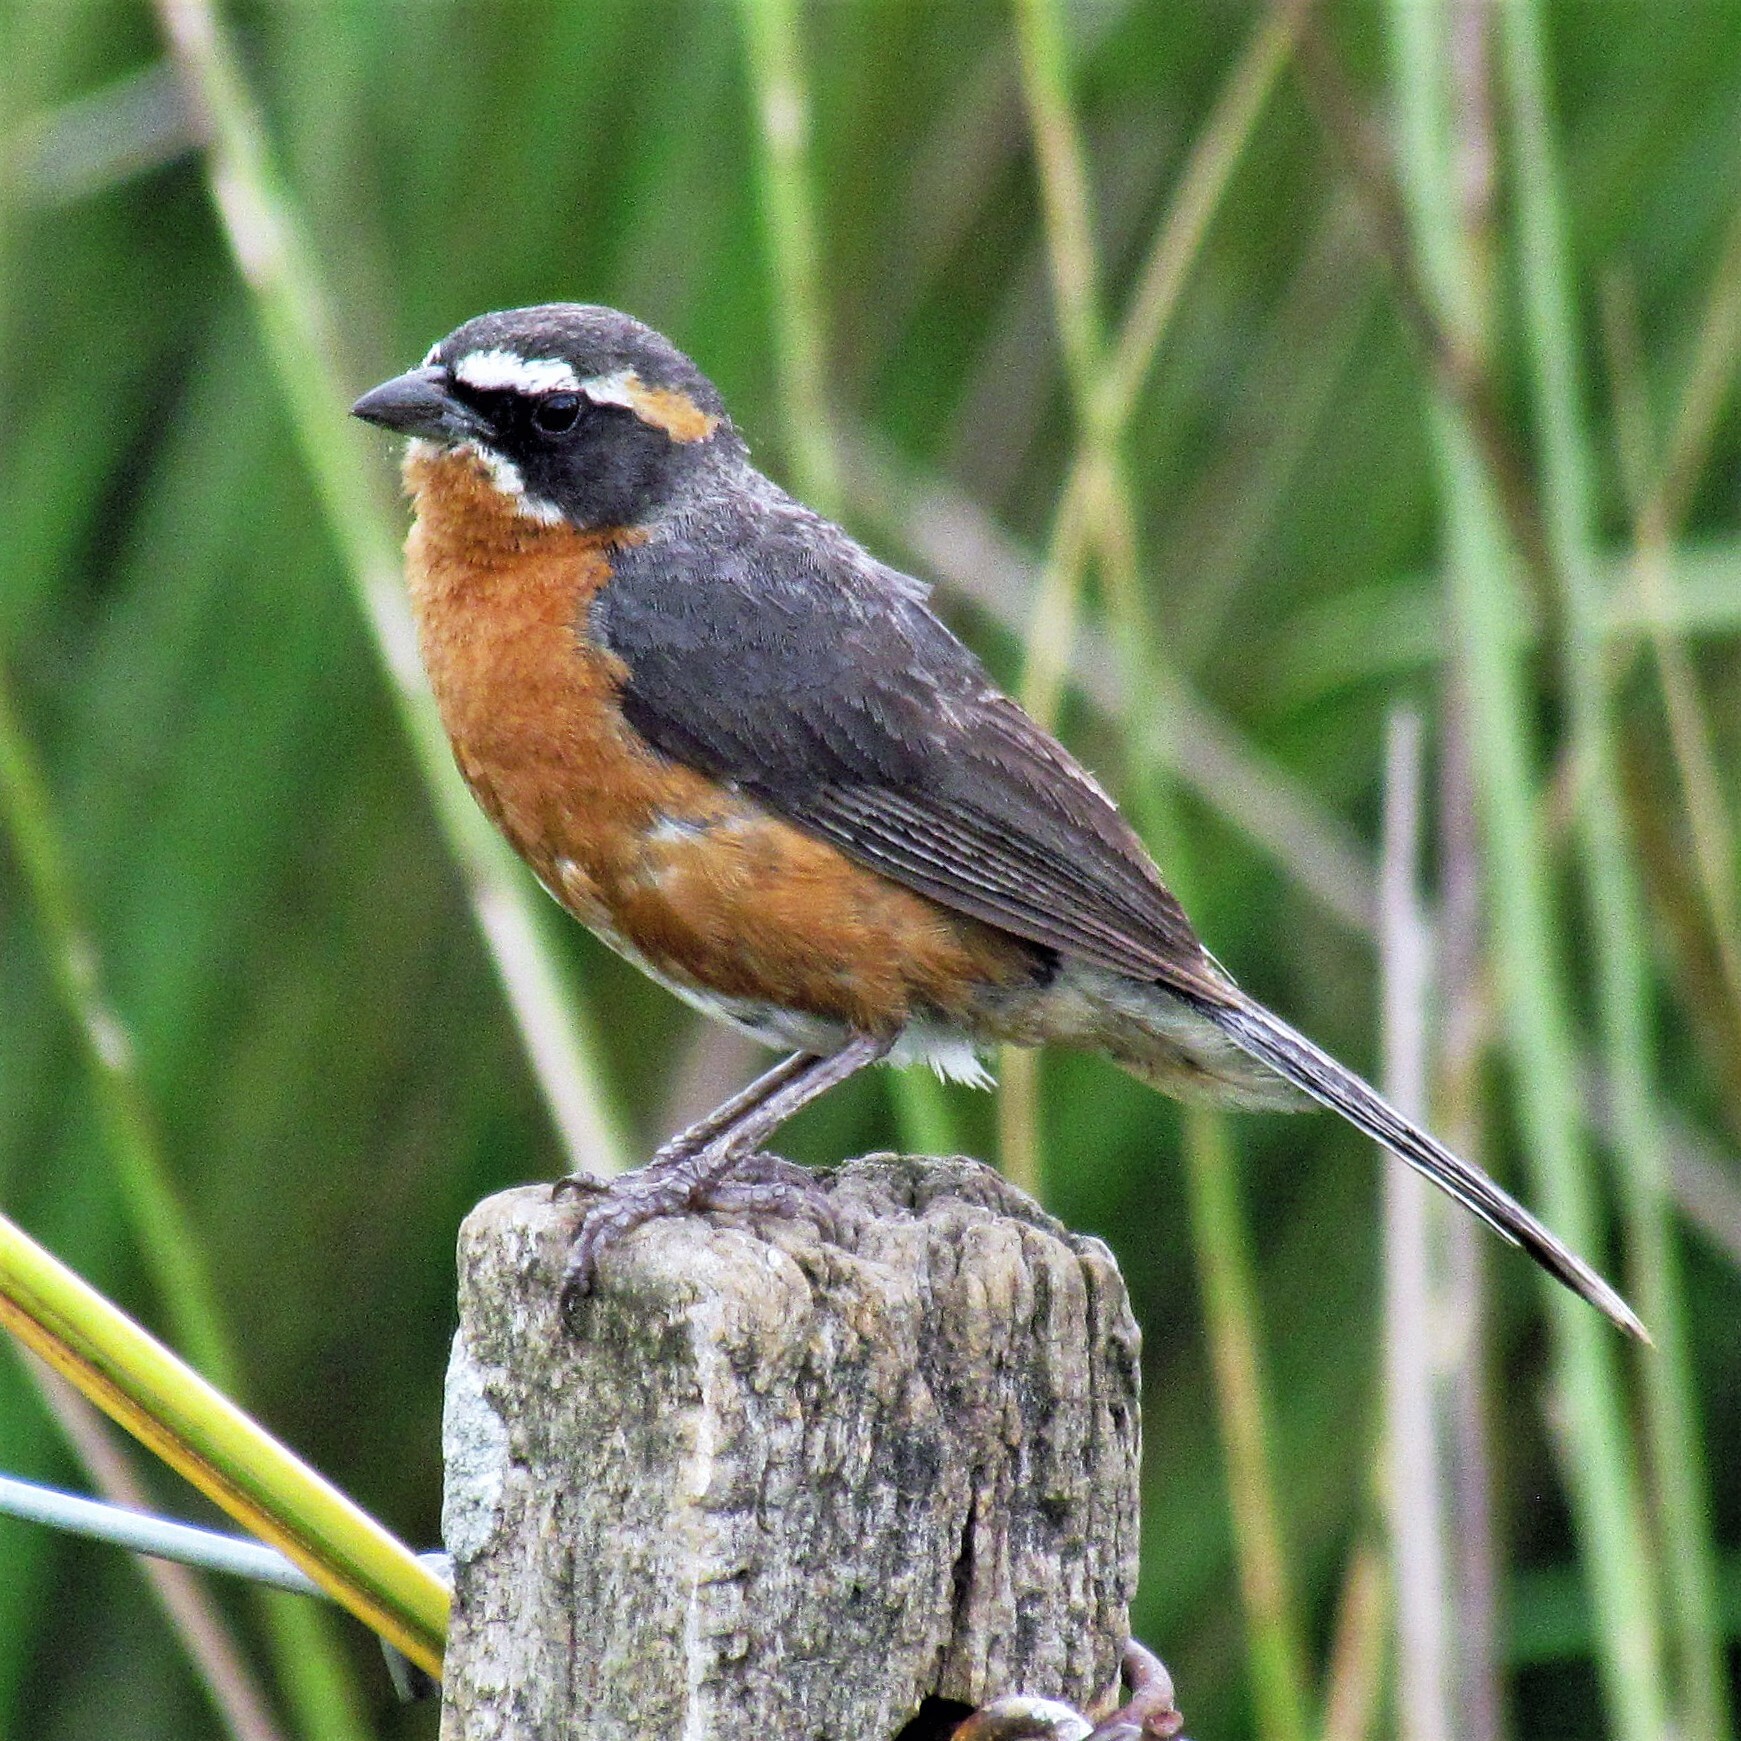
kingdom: Animalia
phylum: Chordata
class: Aves
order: Passeriformes
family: Thraupidae
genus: Poospiza
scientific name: Poospiza nigrorufa
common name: Black-and-rufous warbling finch
